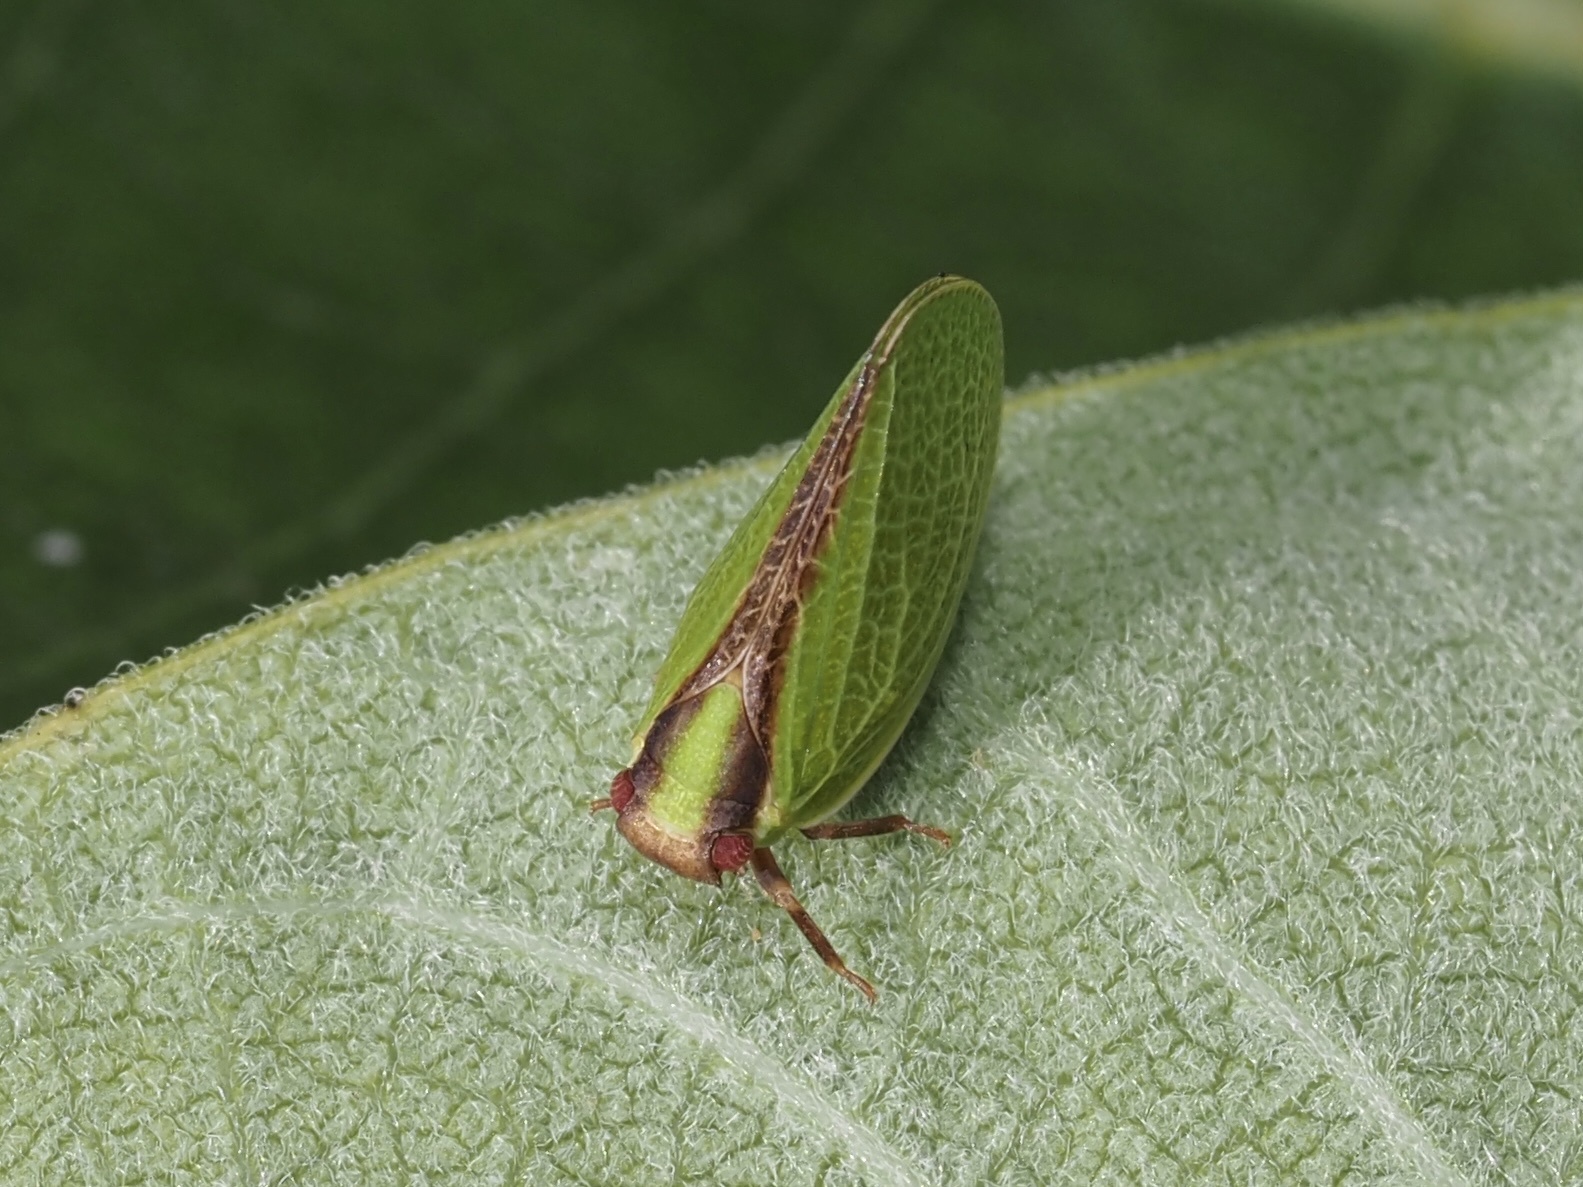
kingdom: Animalia
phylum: Arthropoda
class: Insecta
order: Hemiptera
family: Acanaloniidae
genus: Acanalonia
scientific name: Acanalonia bivittata
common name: Two-striped planthopper
